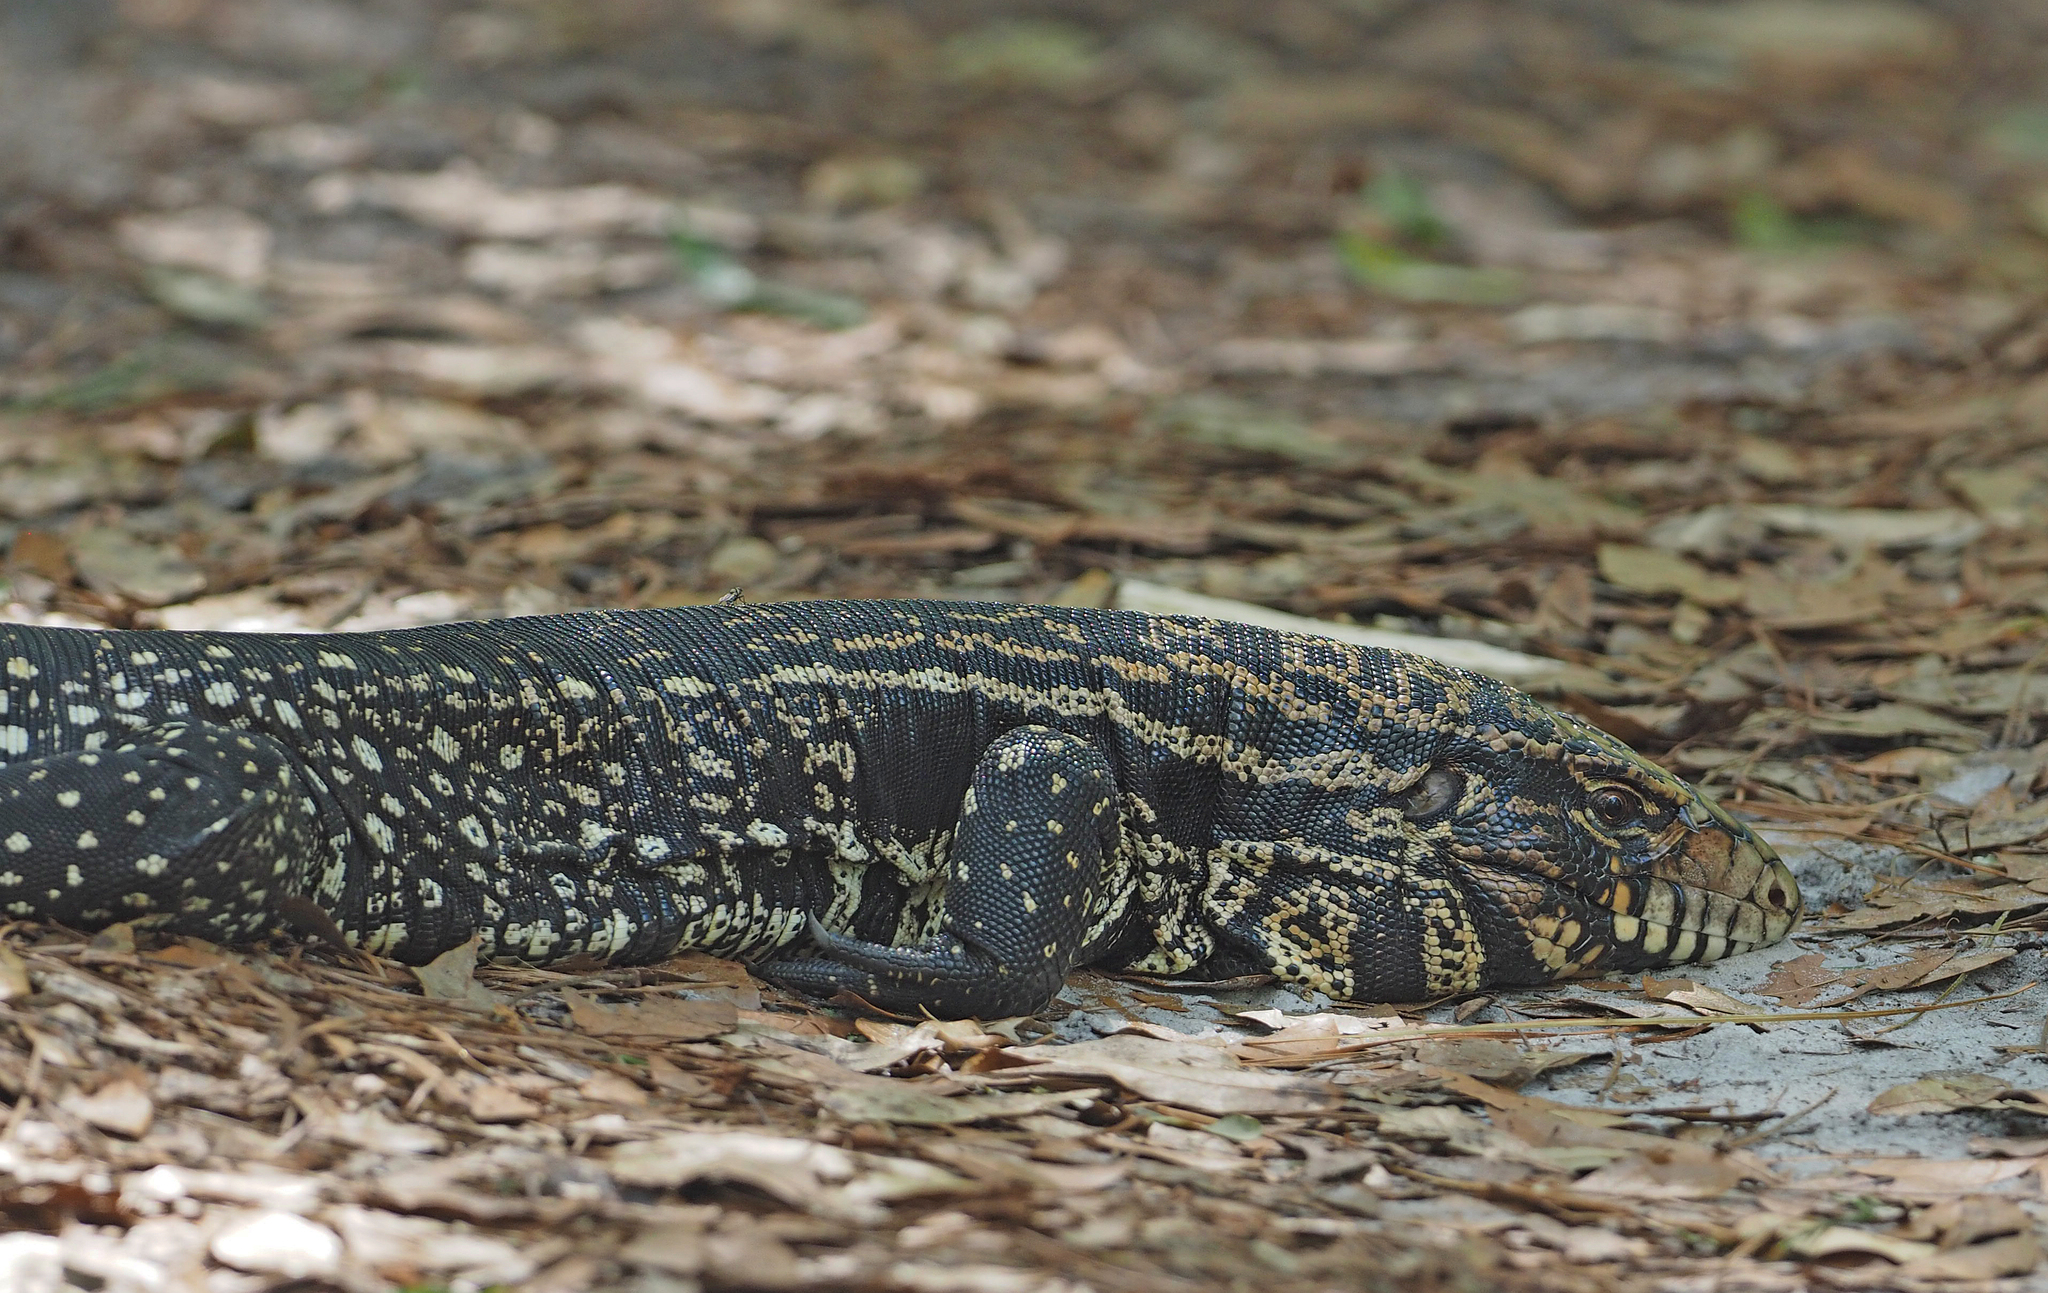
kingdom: Animalia
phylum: Chordata
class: Squamata
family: Teiidae
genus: Salvator
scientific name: Salvator merianae
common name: Argentine black and white tegu
